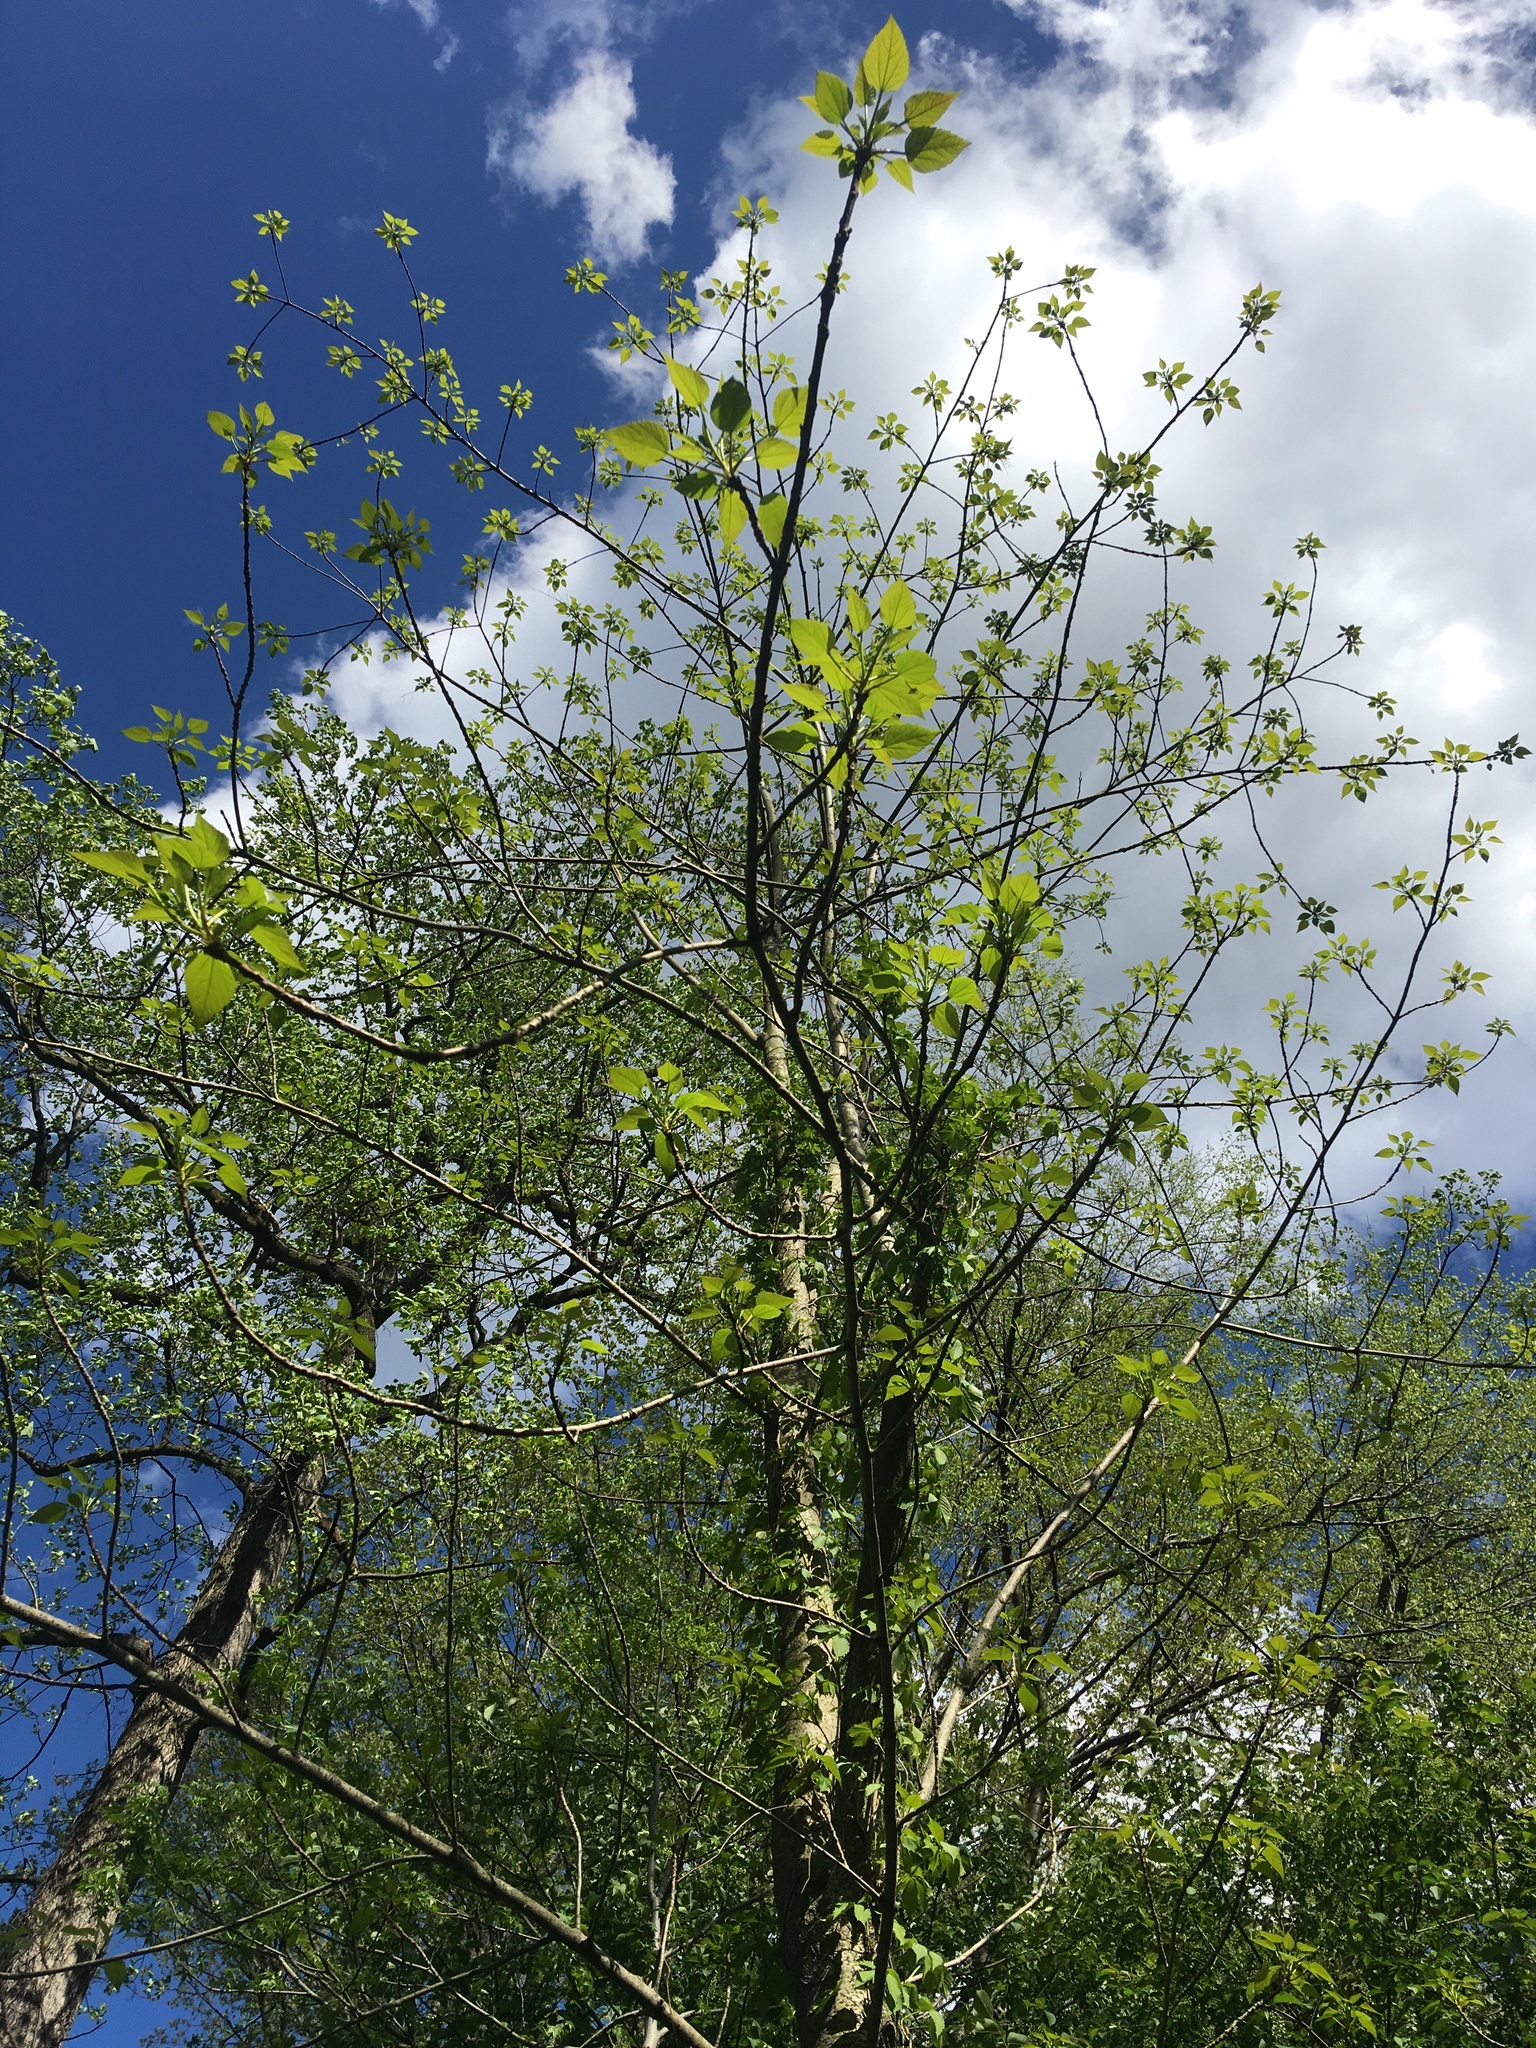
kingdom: Plantae
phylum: Tracheophyta
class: Magnoliopsida
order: Malpighiales
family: Salicaceae
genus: Idesia
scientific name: Idesia polycarpa
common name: Idesia tree
